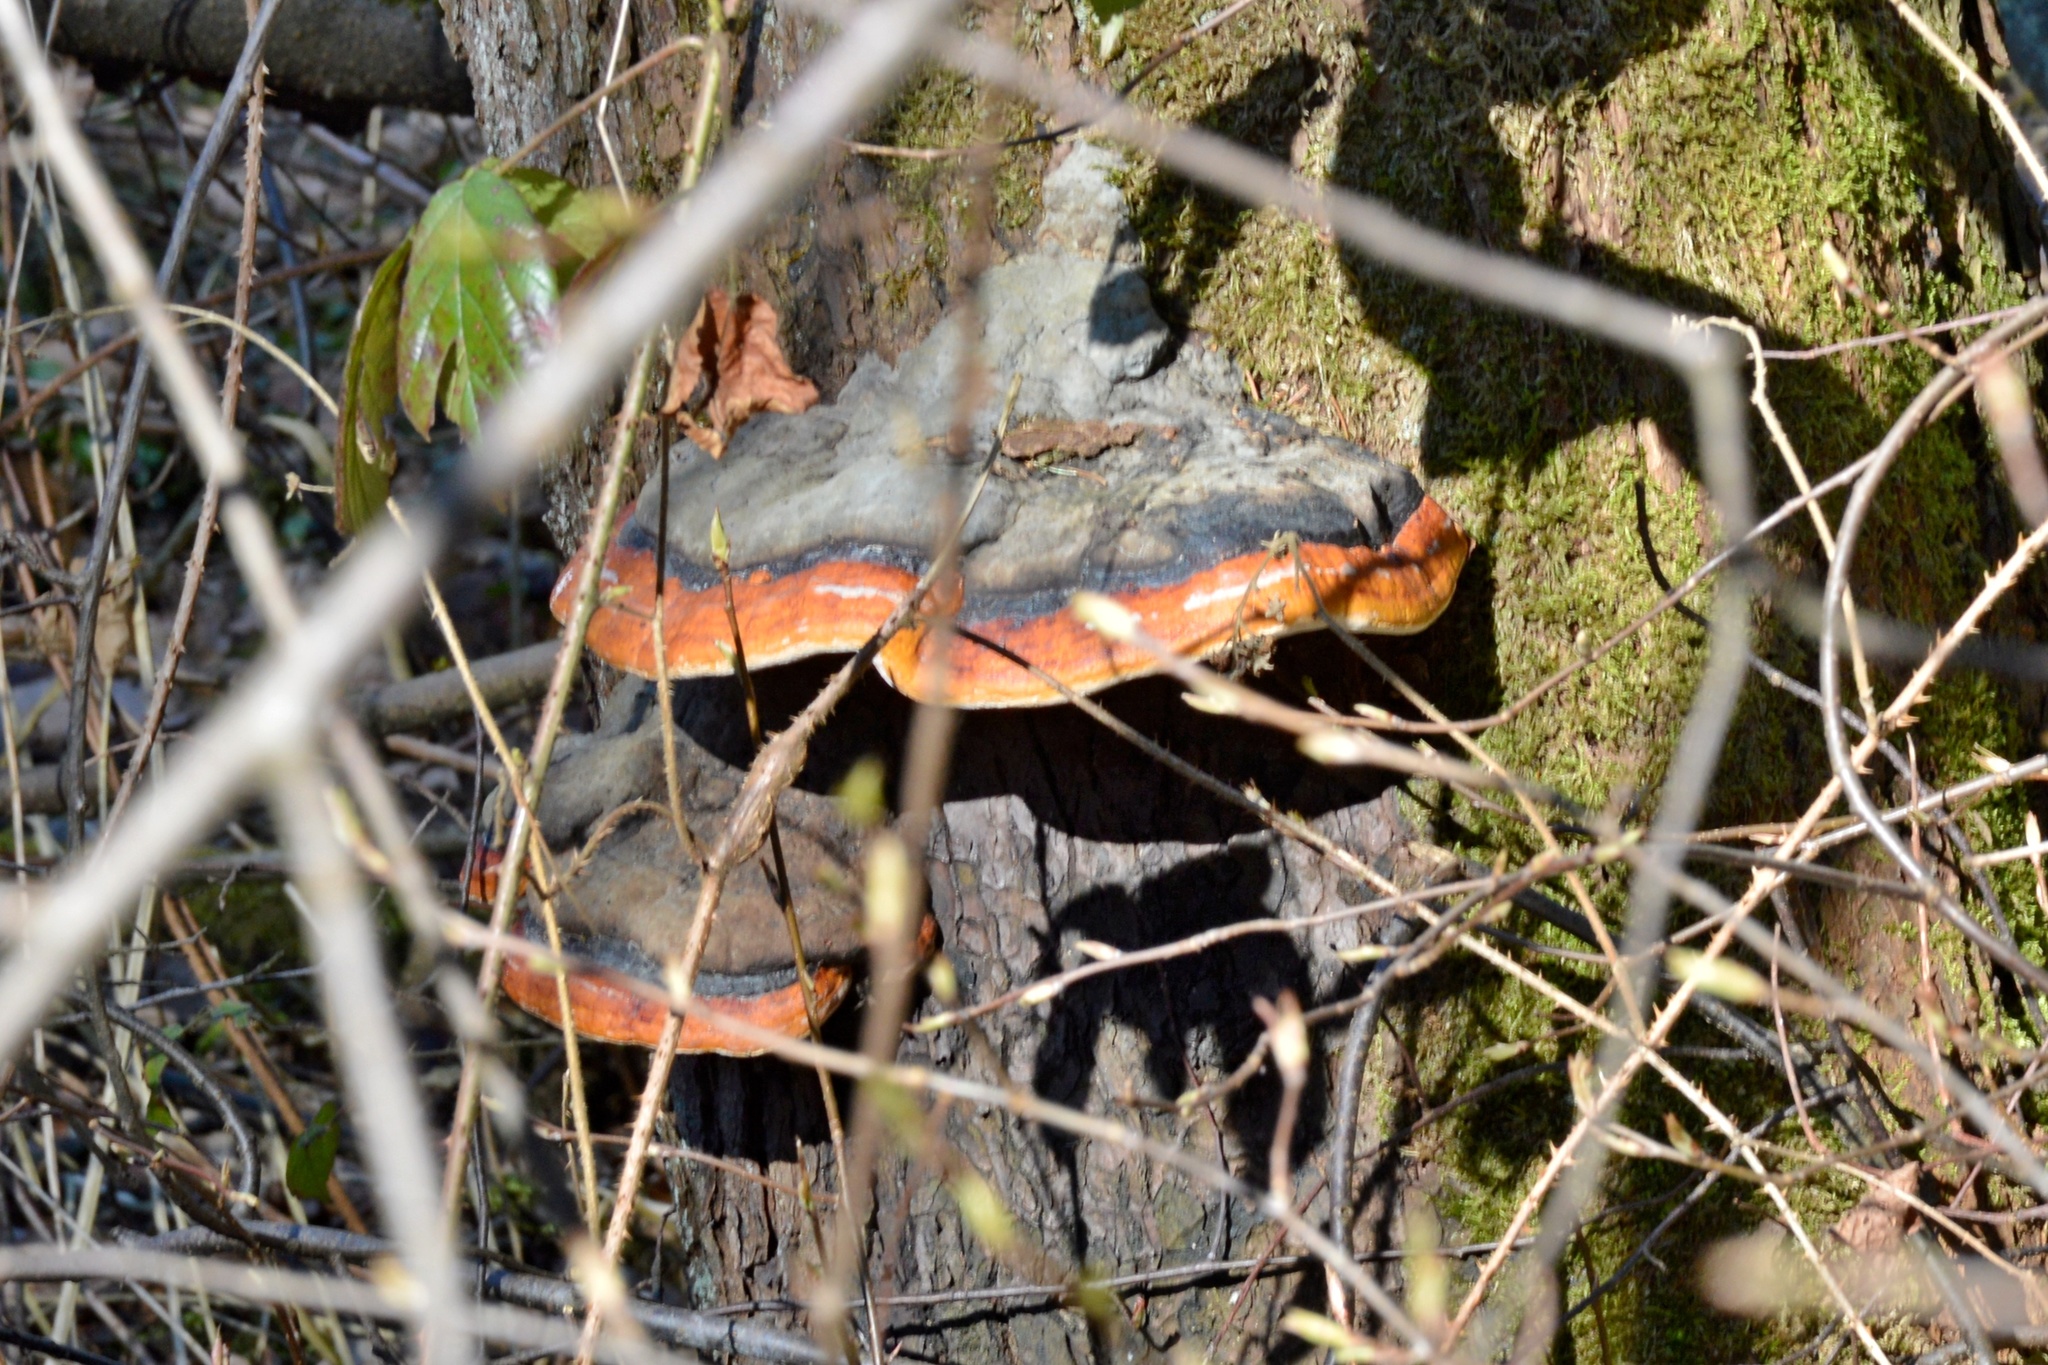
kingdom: Fungi
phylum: Basidiomycota
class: Agaricomycetes
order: Polyporales
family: Fomitopsidaceae
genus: Fomitopsis
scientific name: Fomitopsis pinicola
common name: Red-belted bracket
